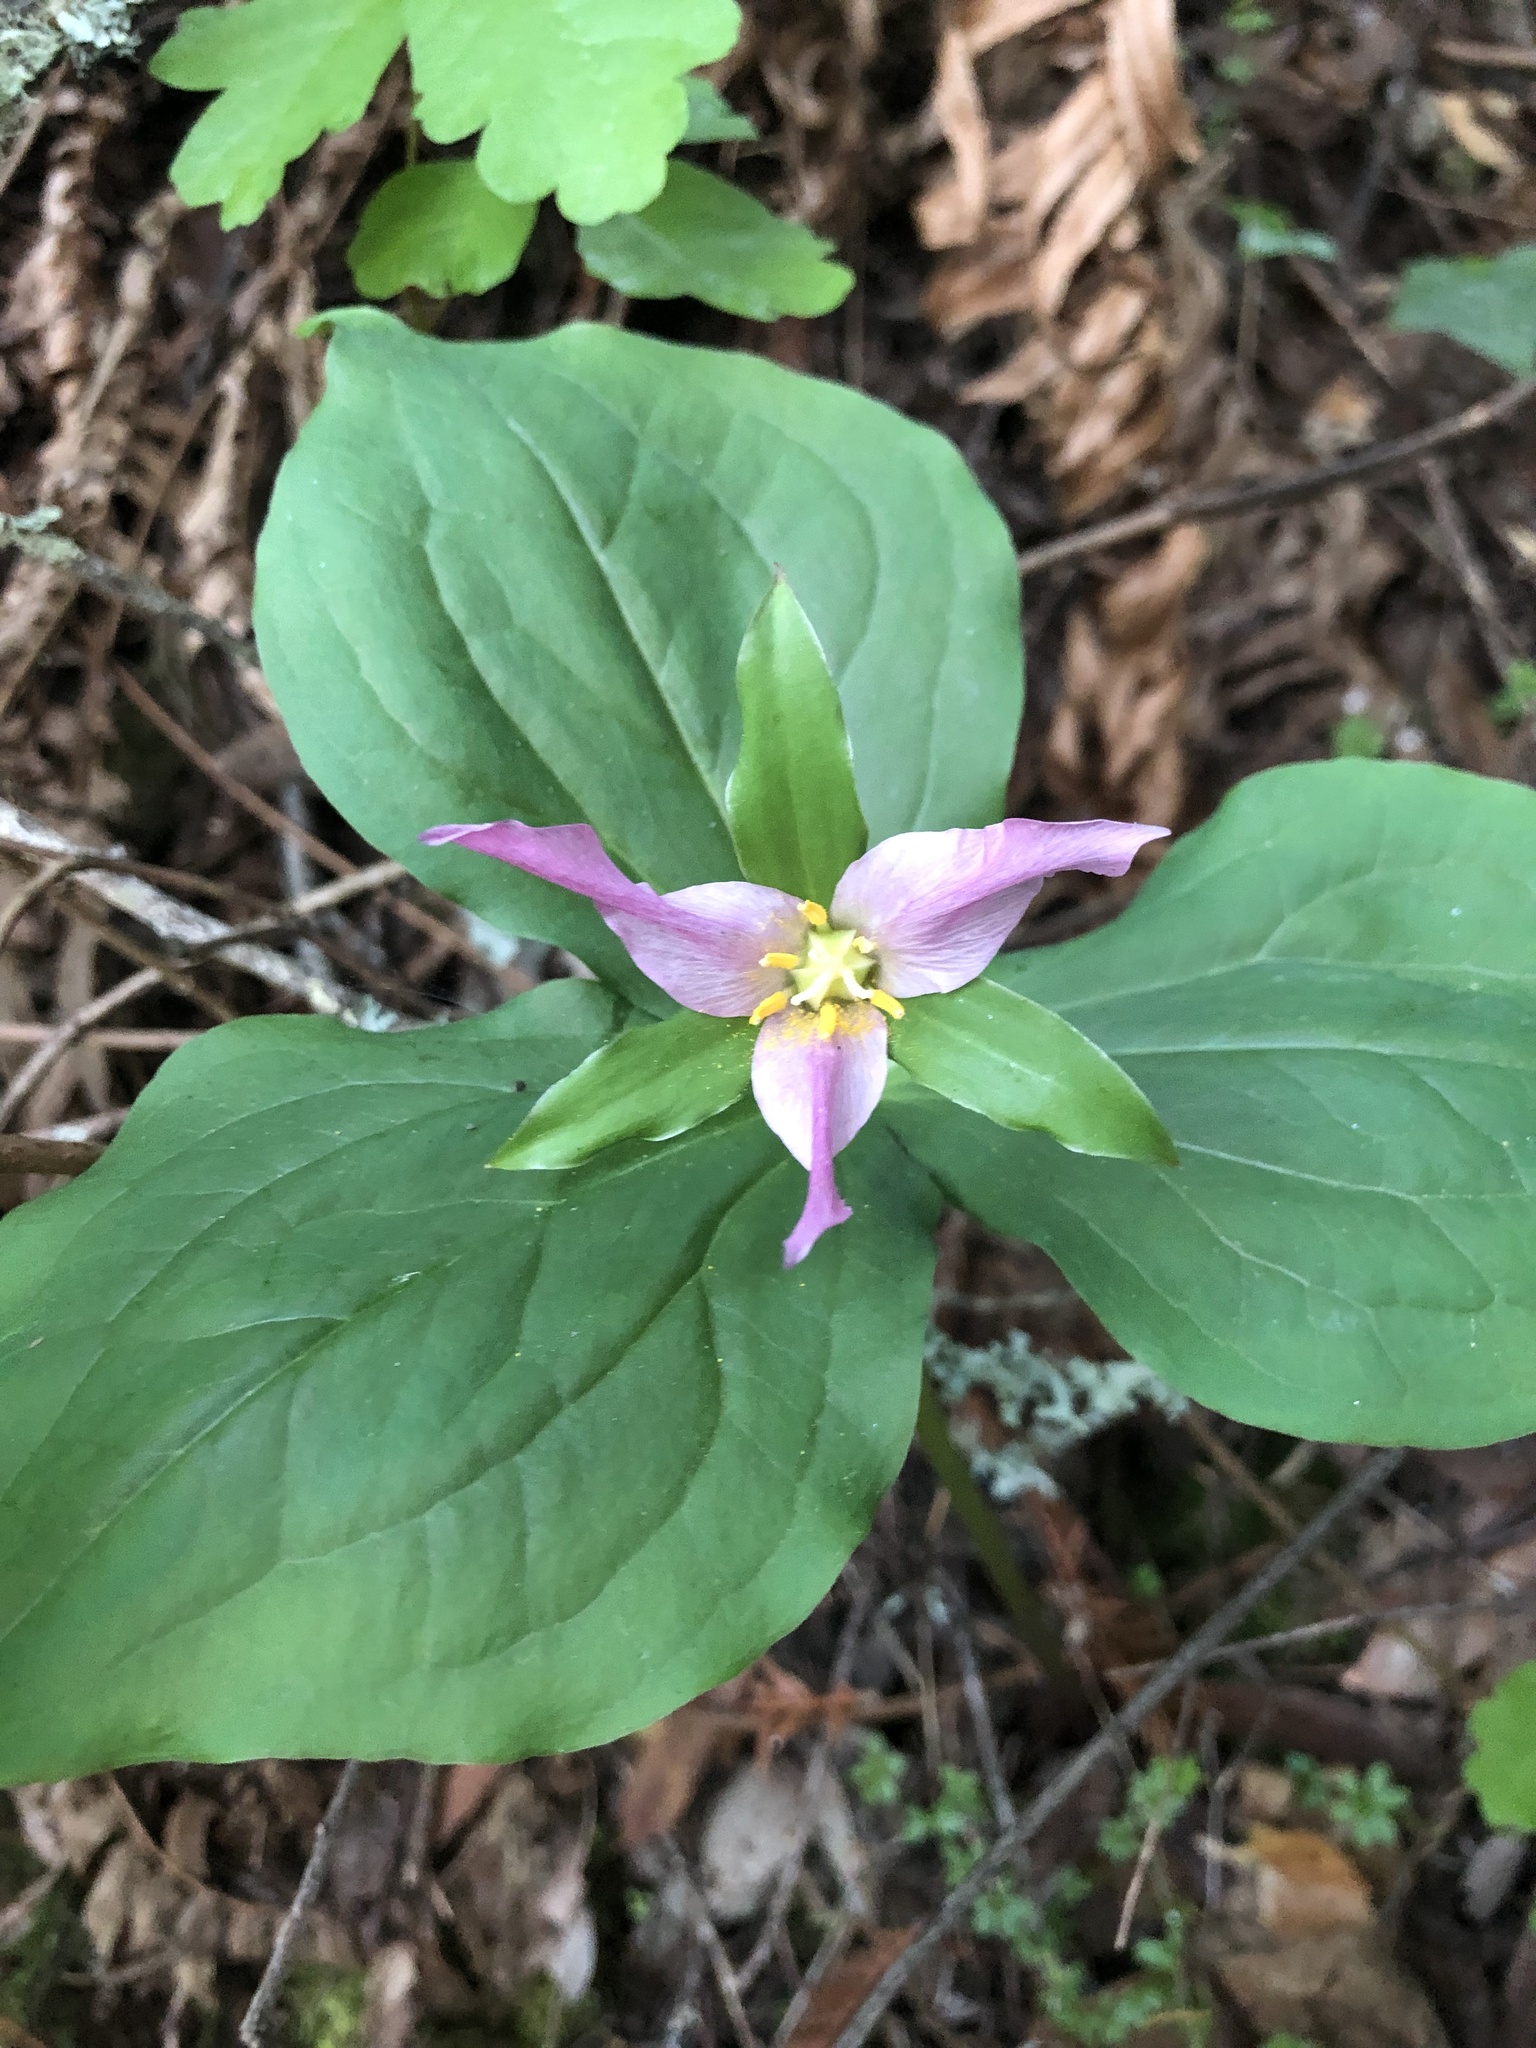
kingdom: Plantae
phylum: Tracheophyta
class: Liliopsida
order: Liliales
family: Melanthiaceae
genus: Trillium
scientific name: Trillium ovatum
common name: Pacific trillium
